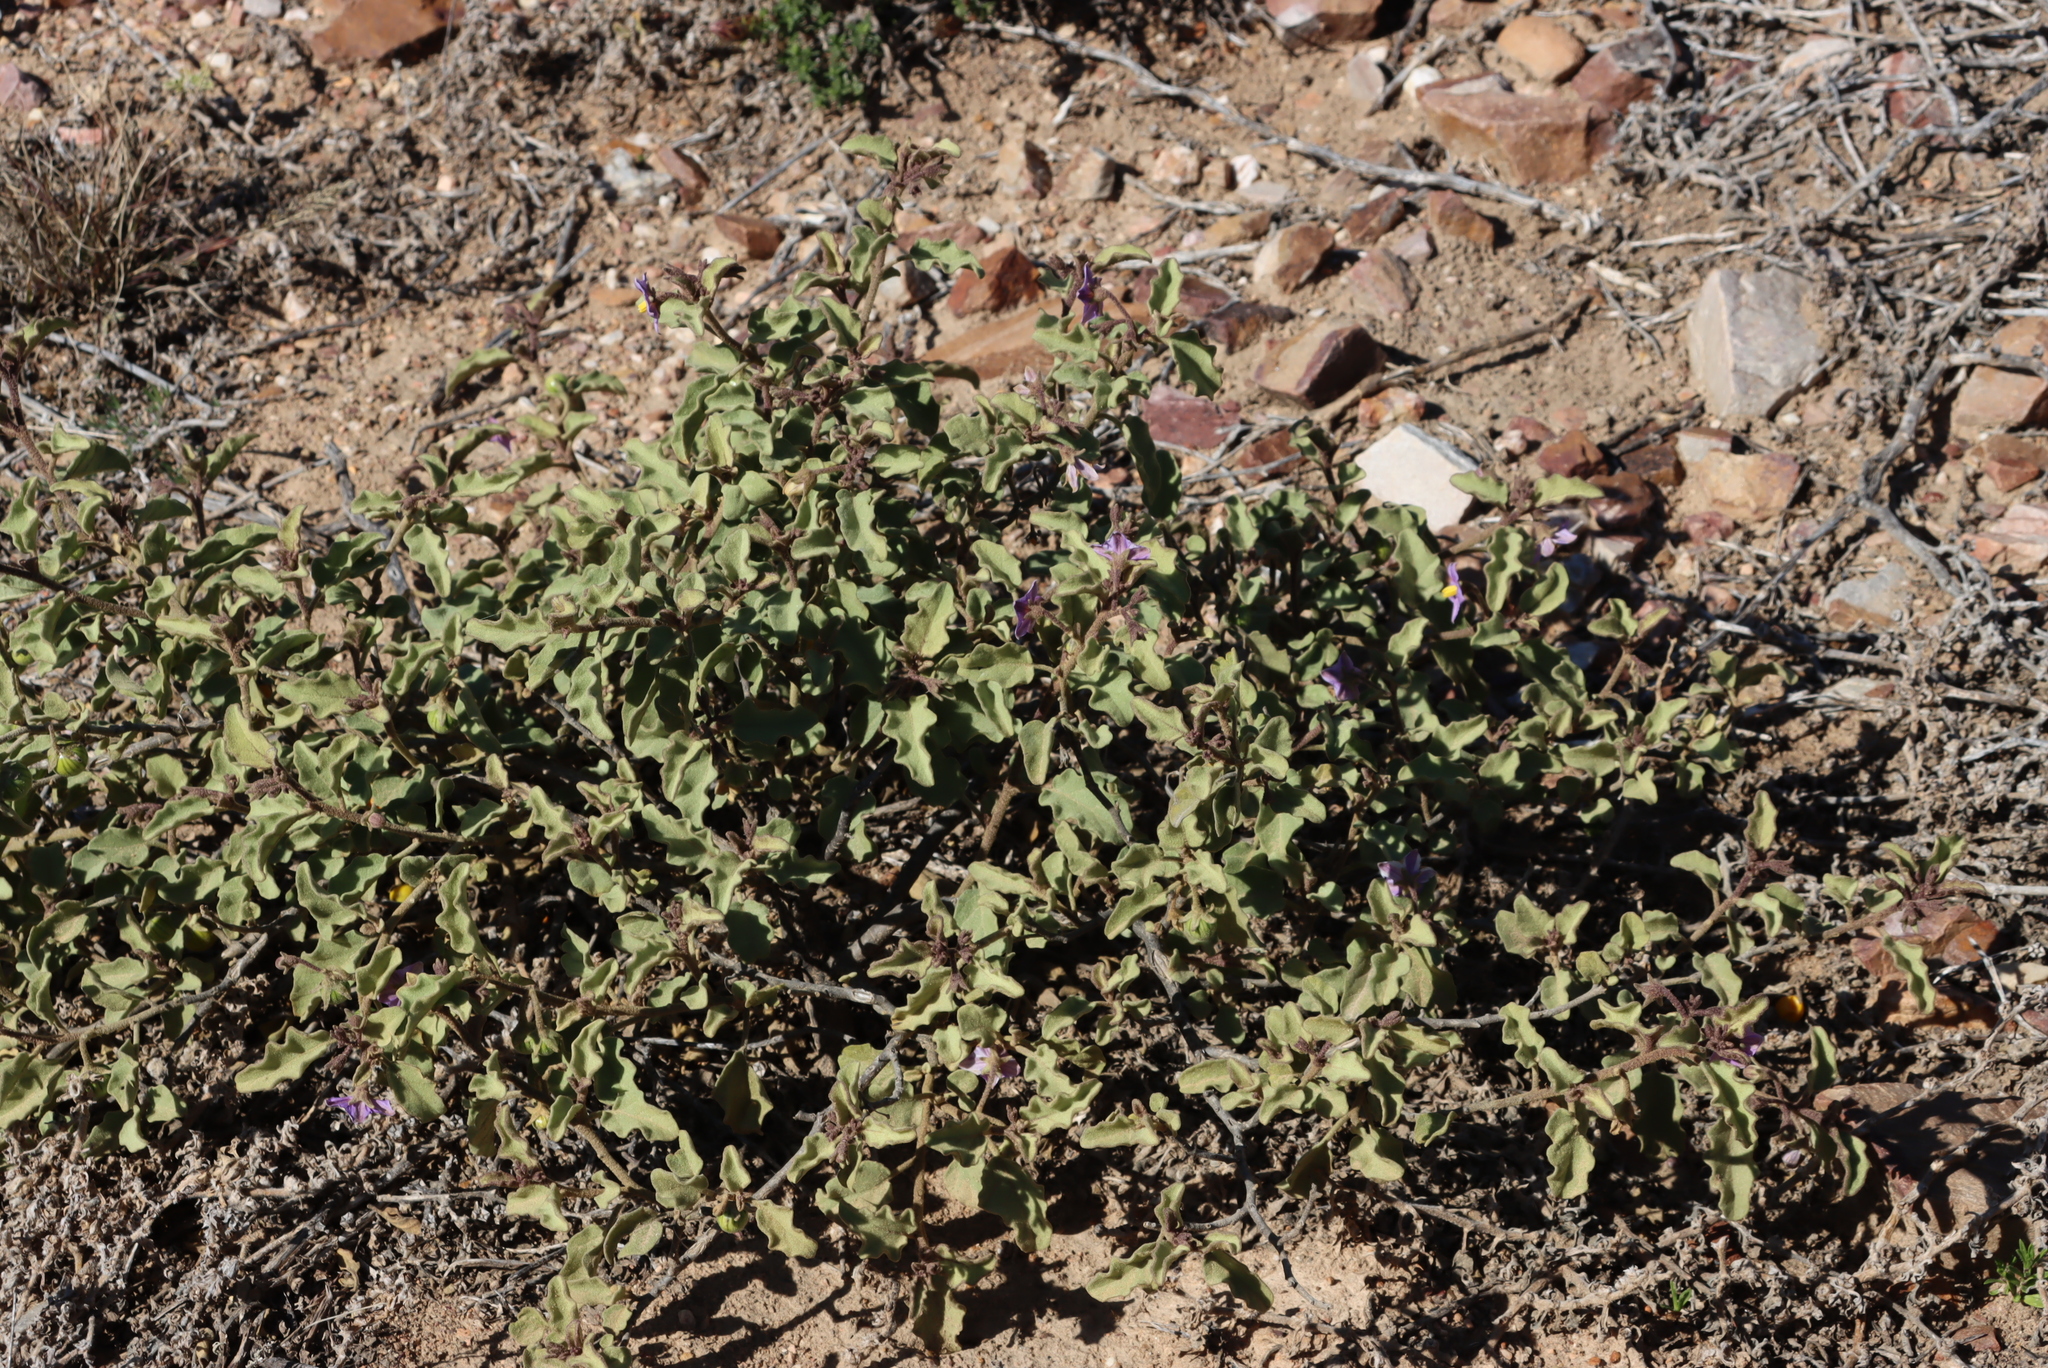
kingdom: Plantae
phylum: Tracheophyta
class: Magnoliopsida
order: Solanales
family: Solanaceae
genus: Solanum
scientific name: Solanum tomentosum
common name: Wild aubergine
